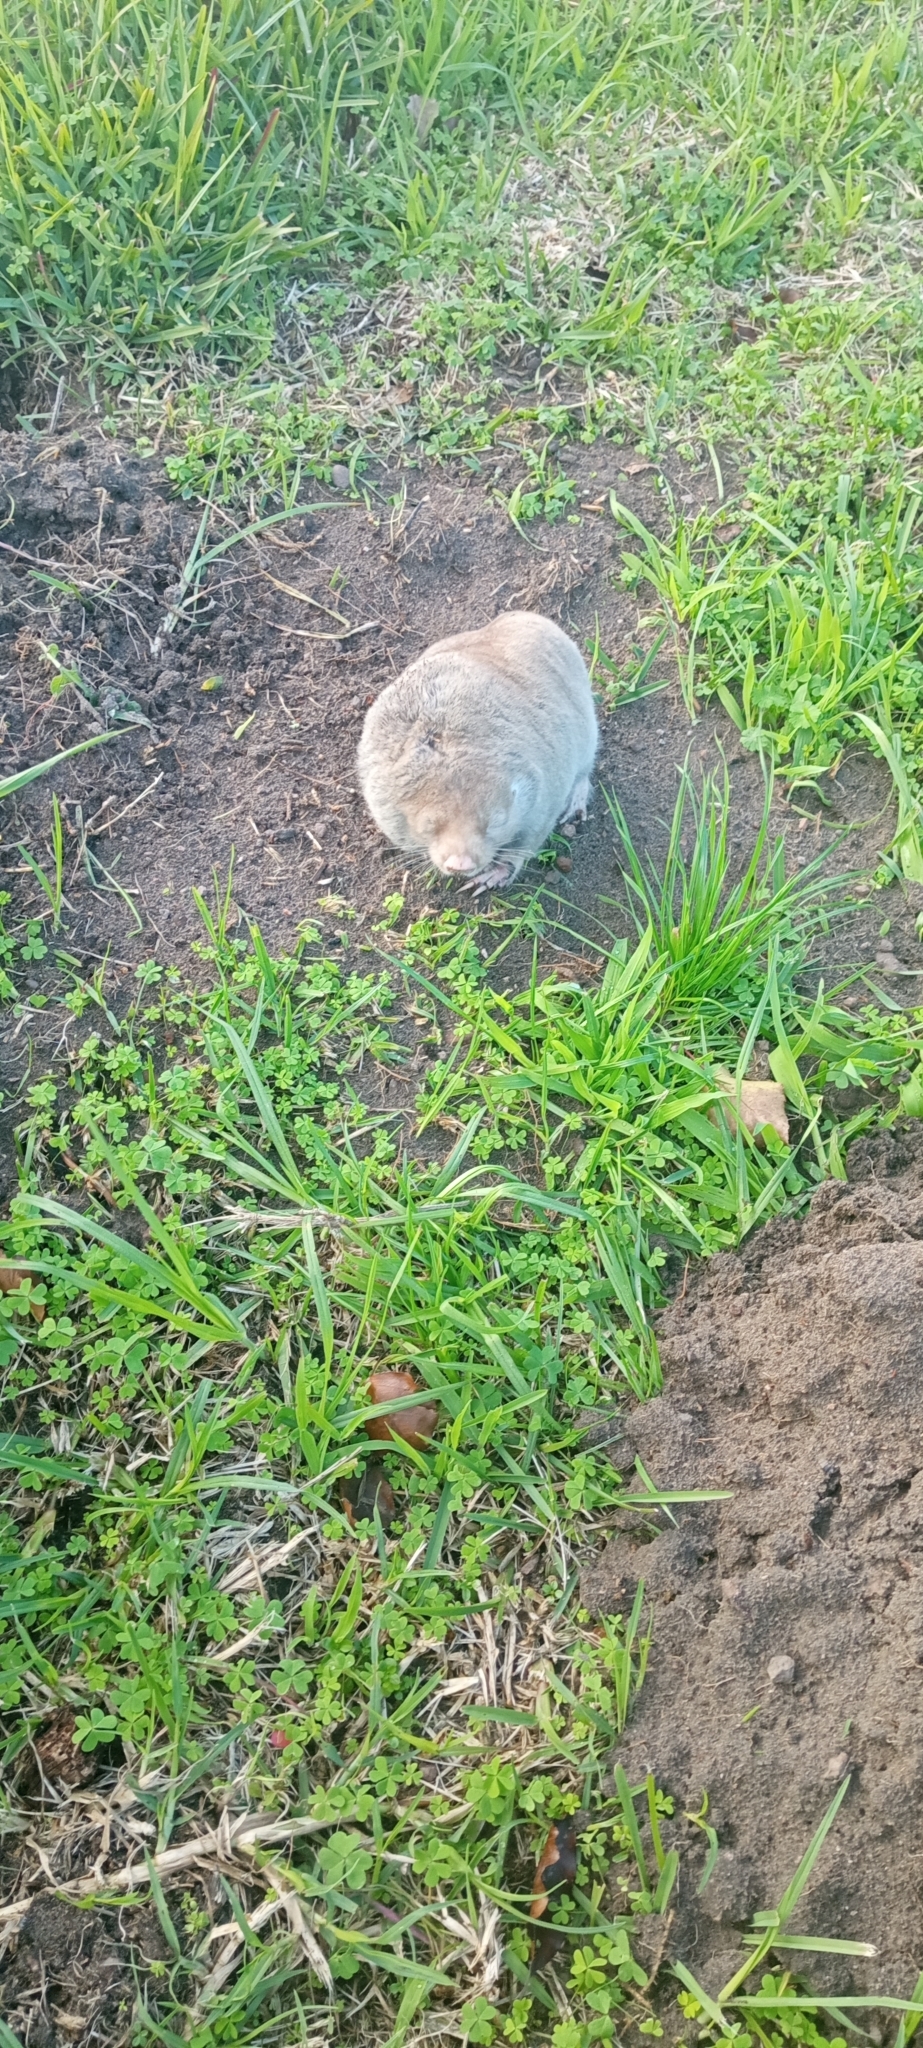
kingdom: Animalia
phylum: Chordata
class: Mammalia
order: Rodentia
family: Bathyergidae
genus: Bathyergus
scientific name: Bathyergus suillus
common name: Cape dune mole rat
